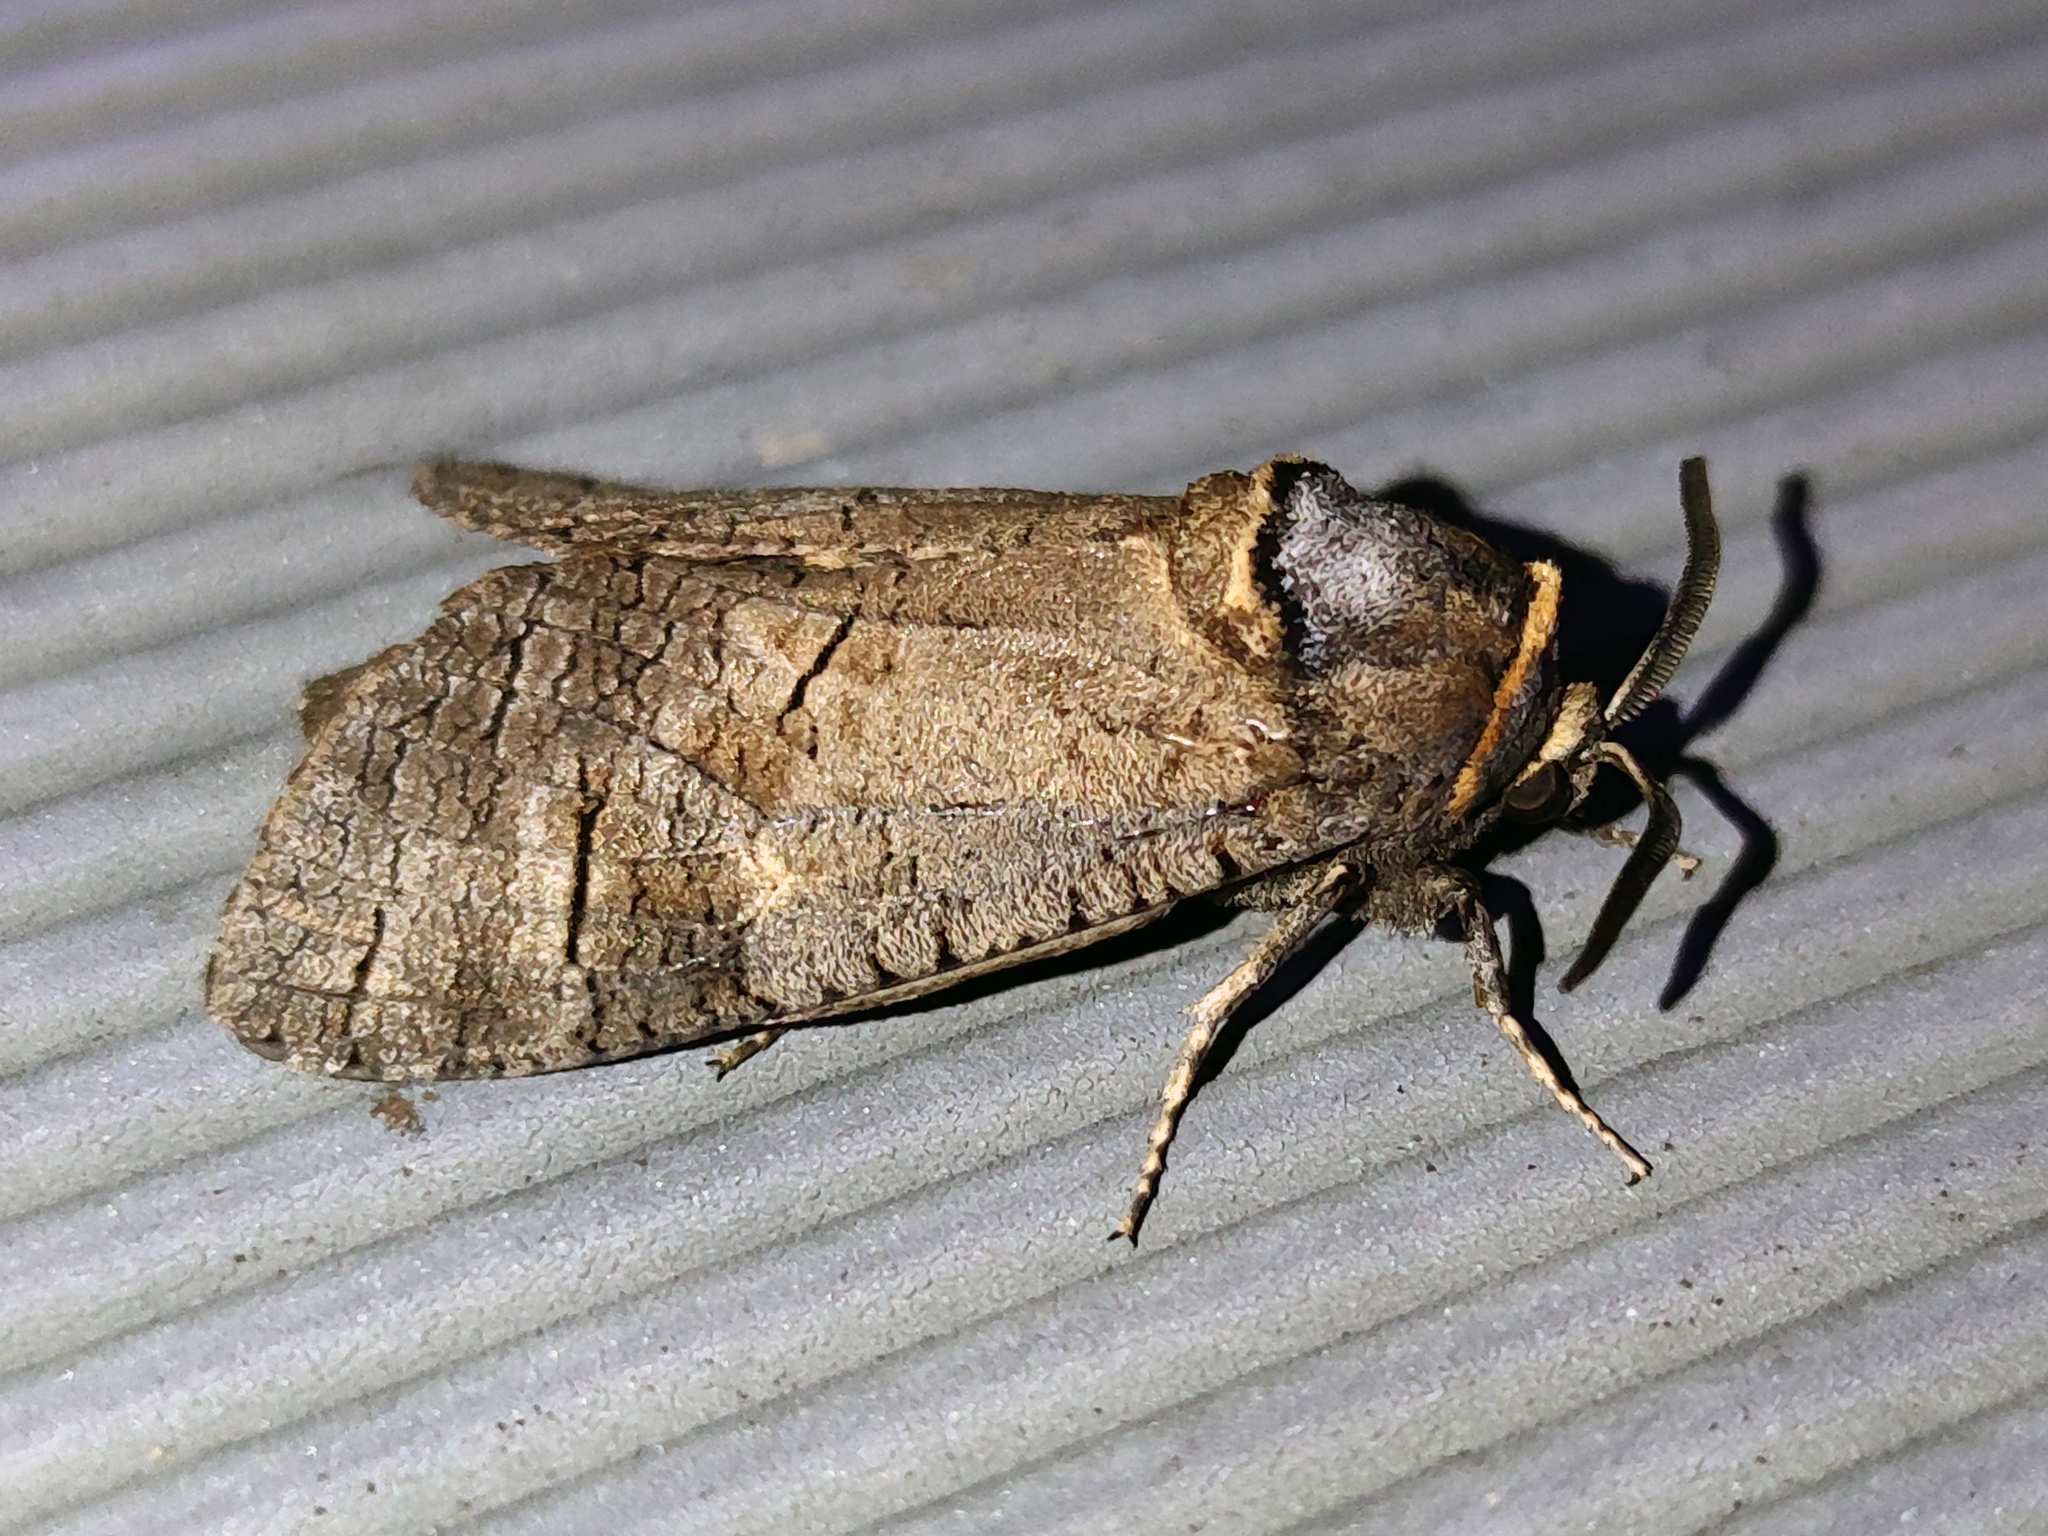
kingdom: Animalia
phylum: Arthropoda
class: Insecta
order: Lepidoptera
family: Cossidae
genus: Cossus
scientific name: Cossus cossus
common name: Goat moth
